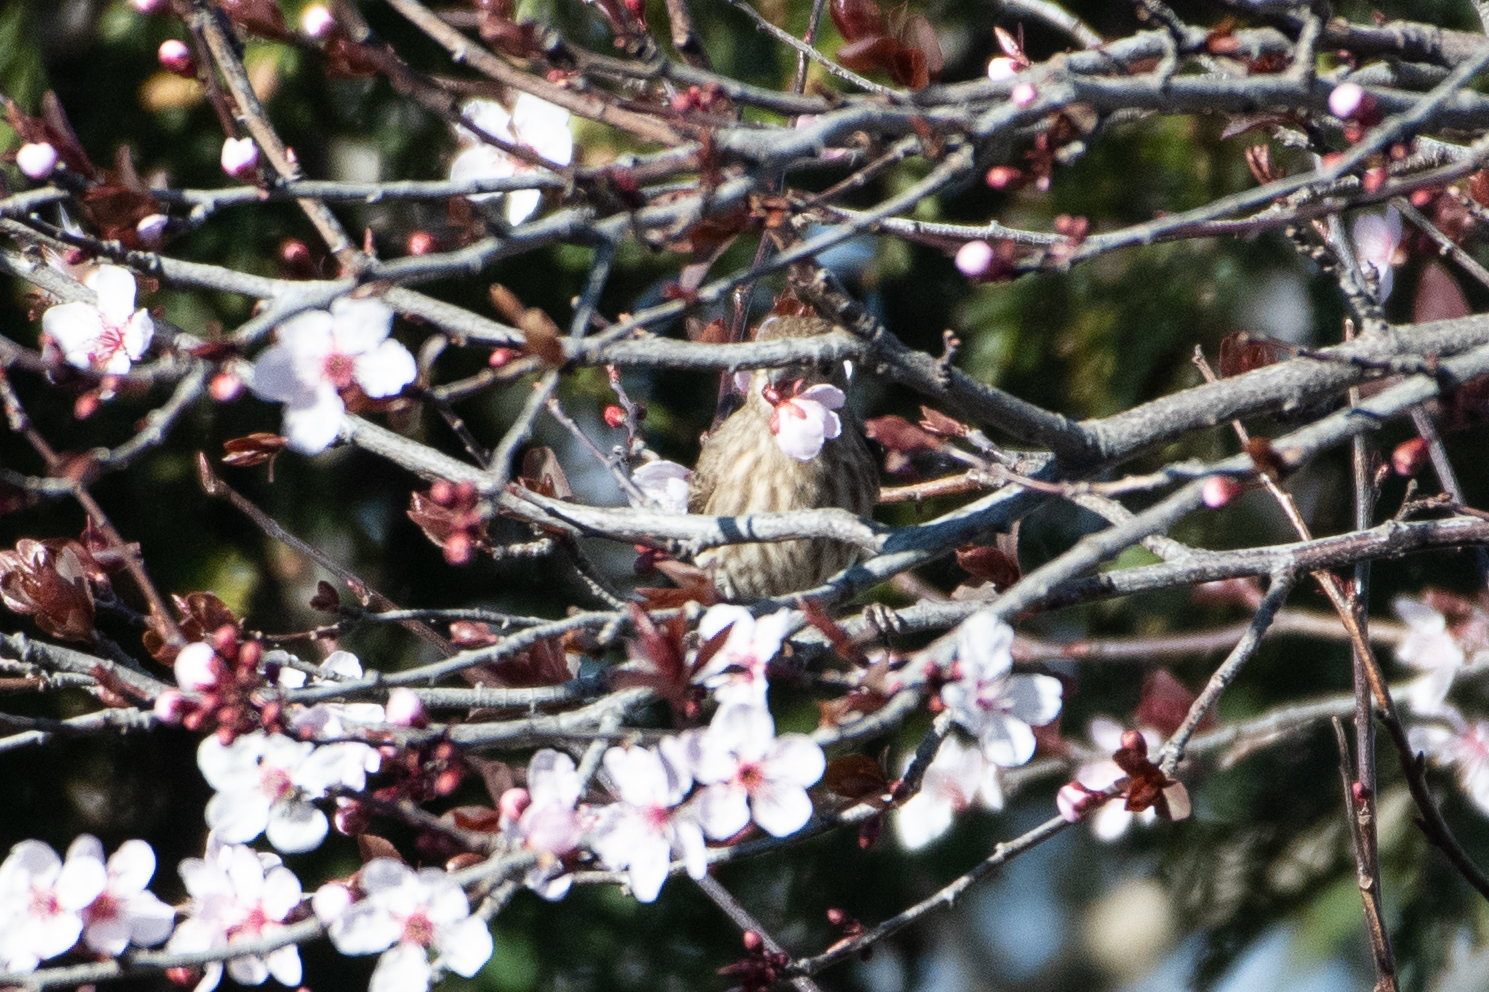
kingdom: Animalia
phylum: Chordata
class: Aves
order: Passeriformes
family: Fringillidae
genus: Haemorhous
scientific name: Haemorhous mexicanus
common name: House finch
